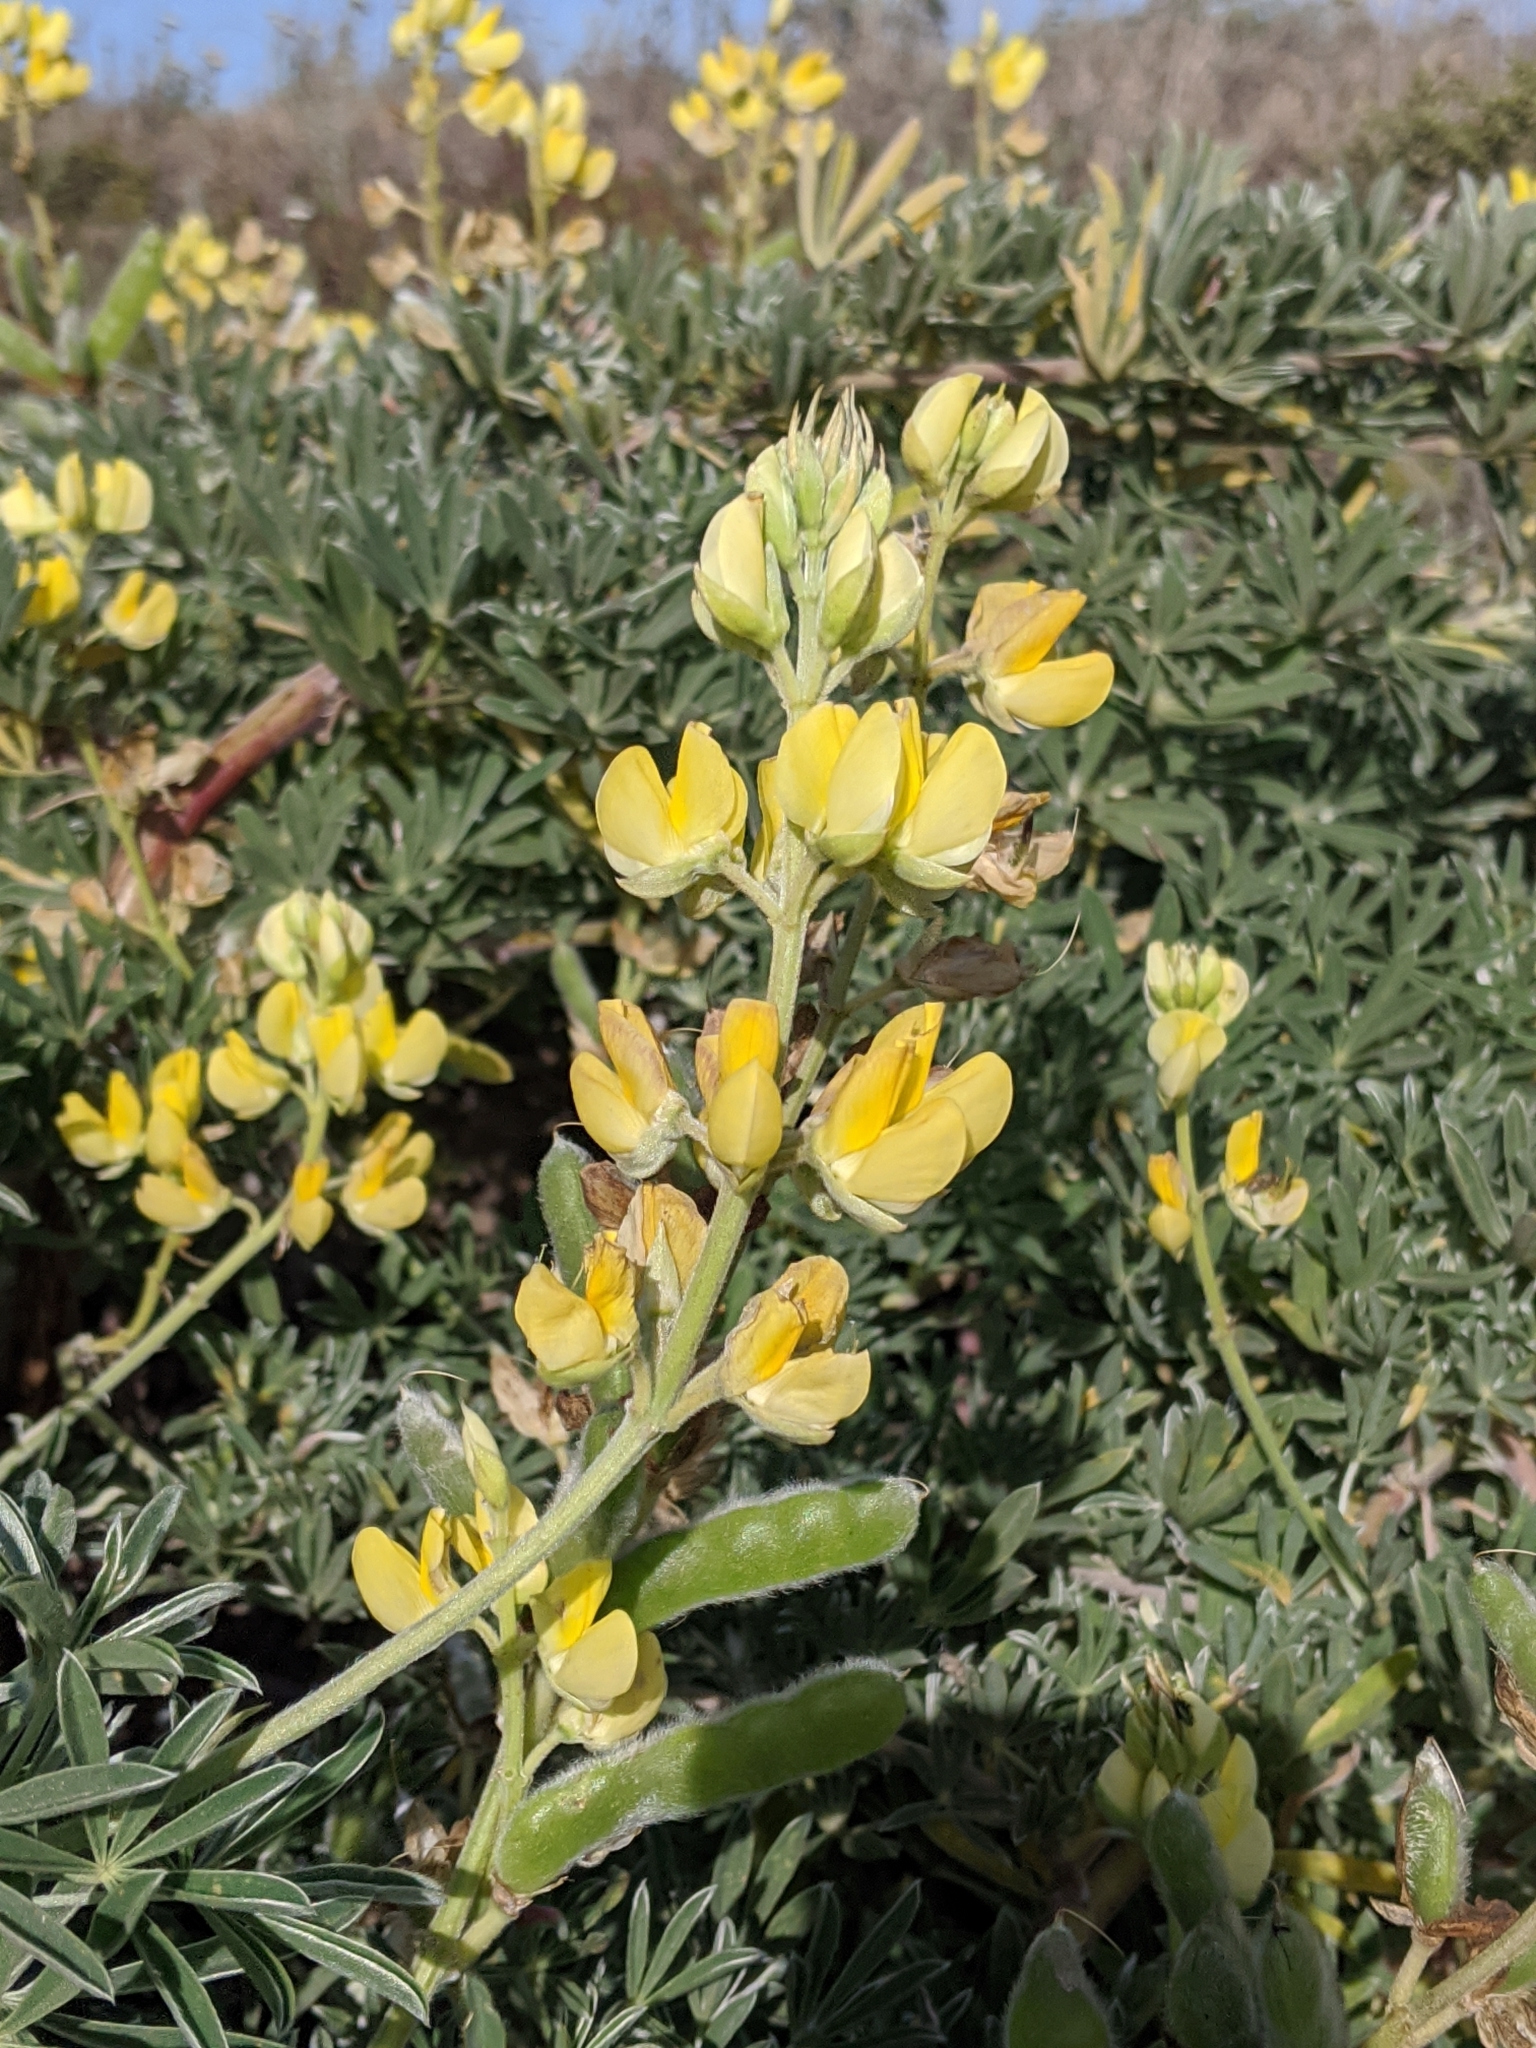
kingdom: Plantae
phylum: Tracheophyta
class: Magnoliopsida
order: Fabales
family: Fabaceae
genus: Lupinus
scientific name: Lupinus arboreus
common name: Yellow bush lupine
